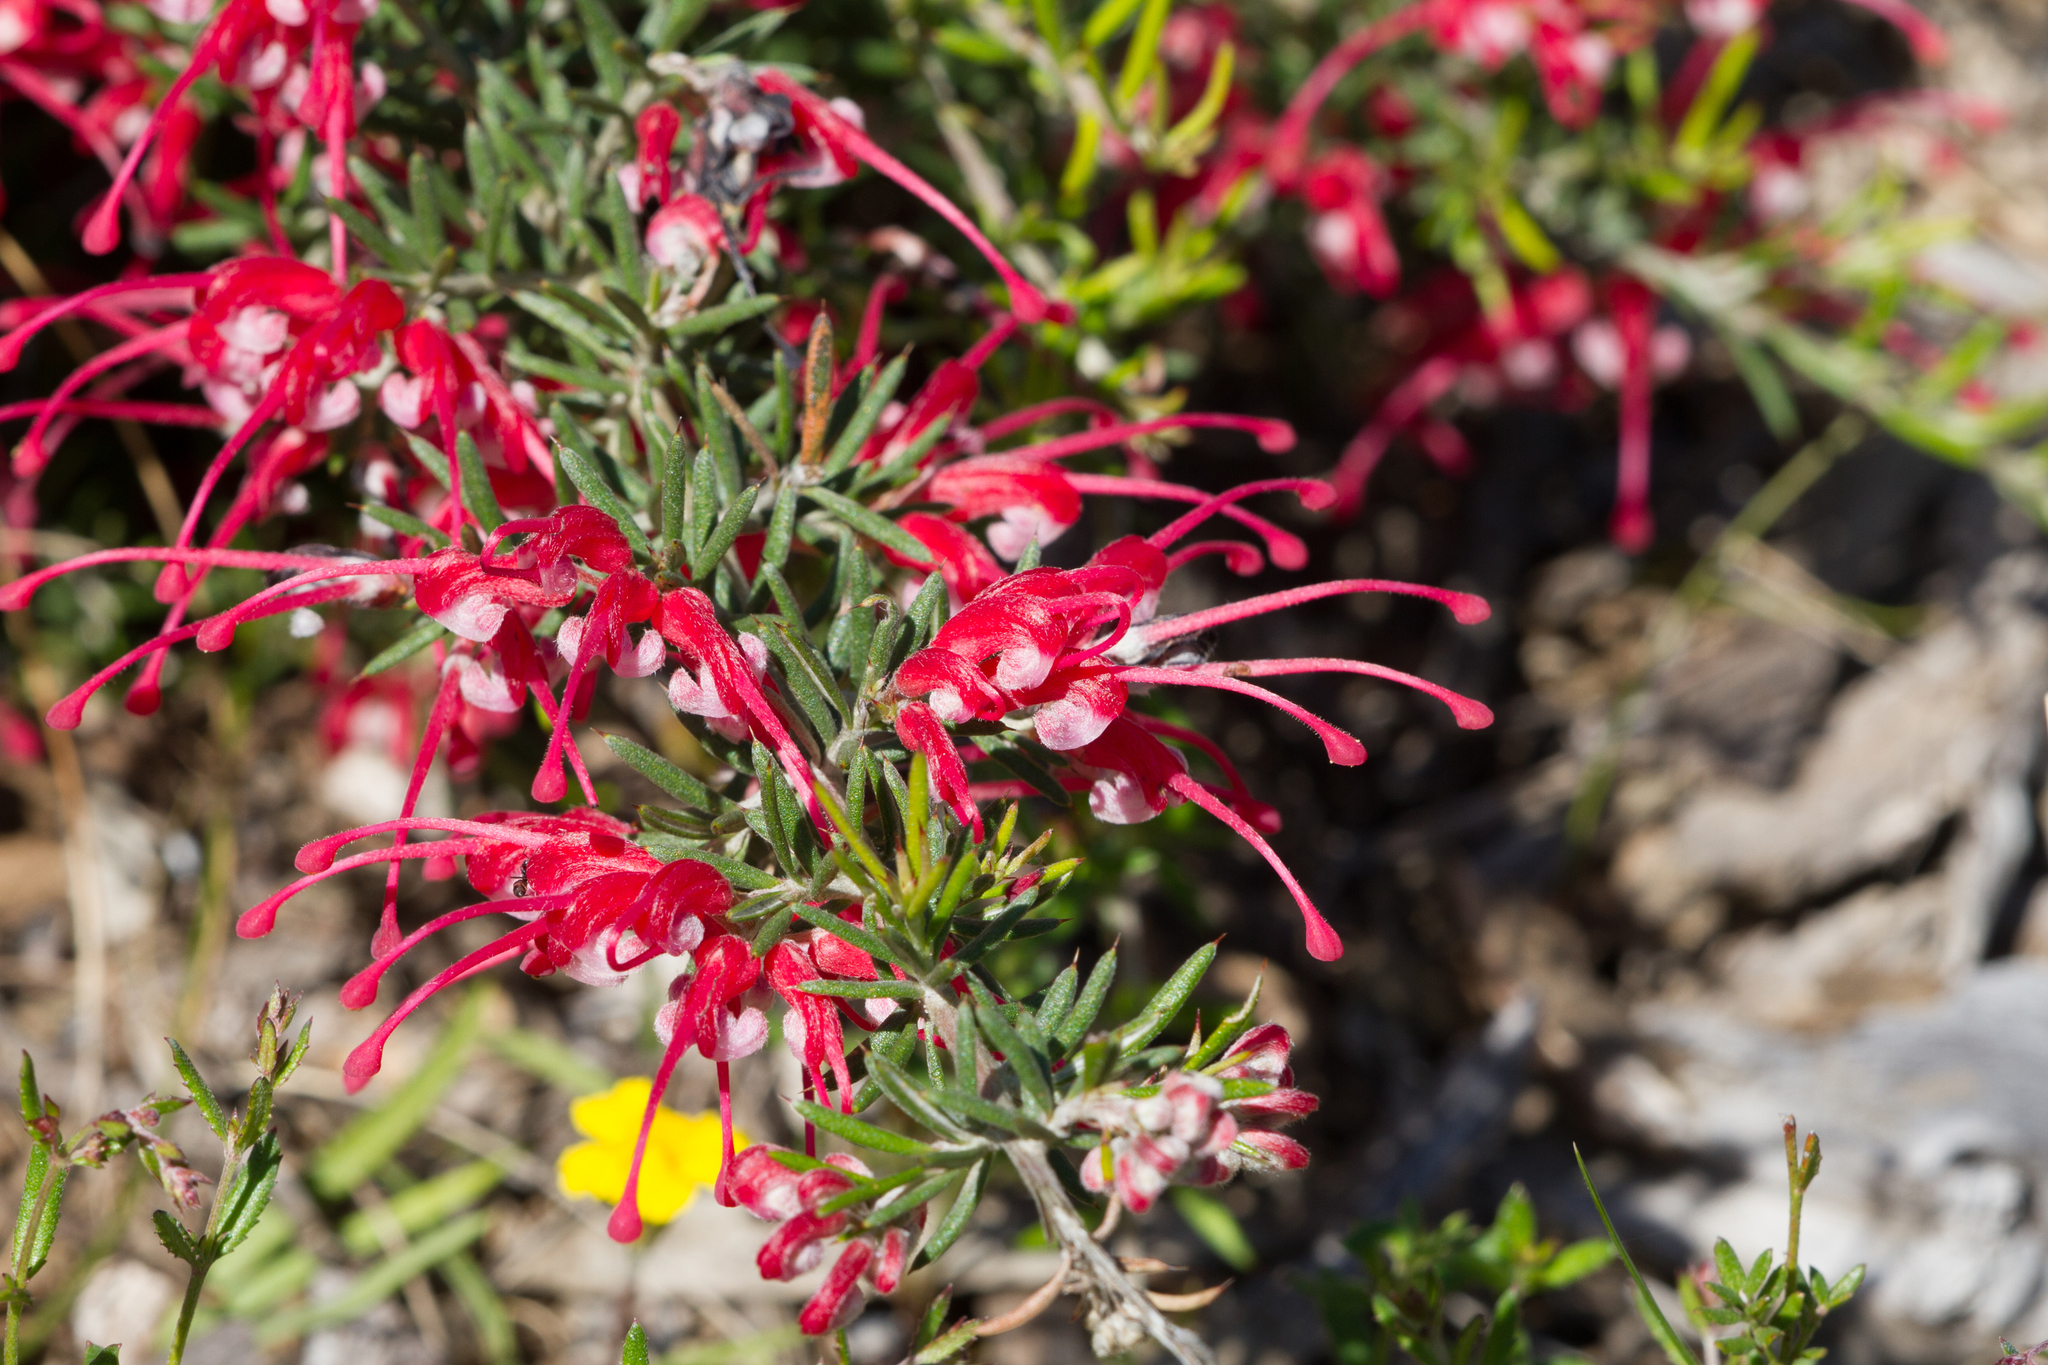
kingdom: Plantae
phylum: Tracheophyta
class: Magnoliopsida
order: Proteales
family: Proteaceae
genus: Grevillea
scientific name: Grevillea lavandulacea
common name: Lavender grevillea
